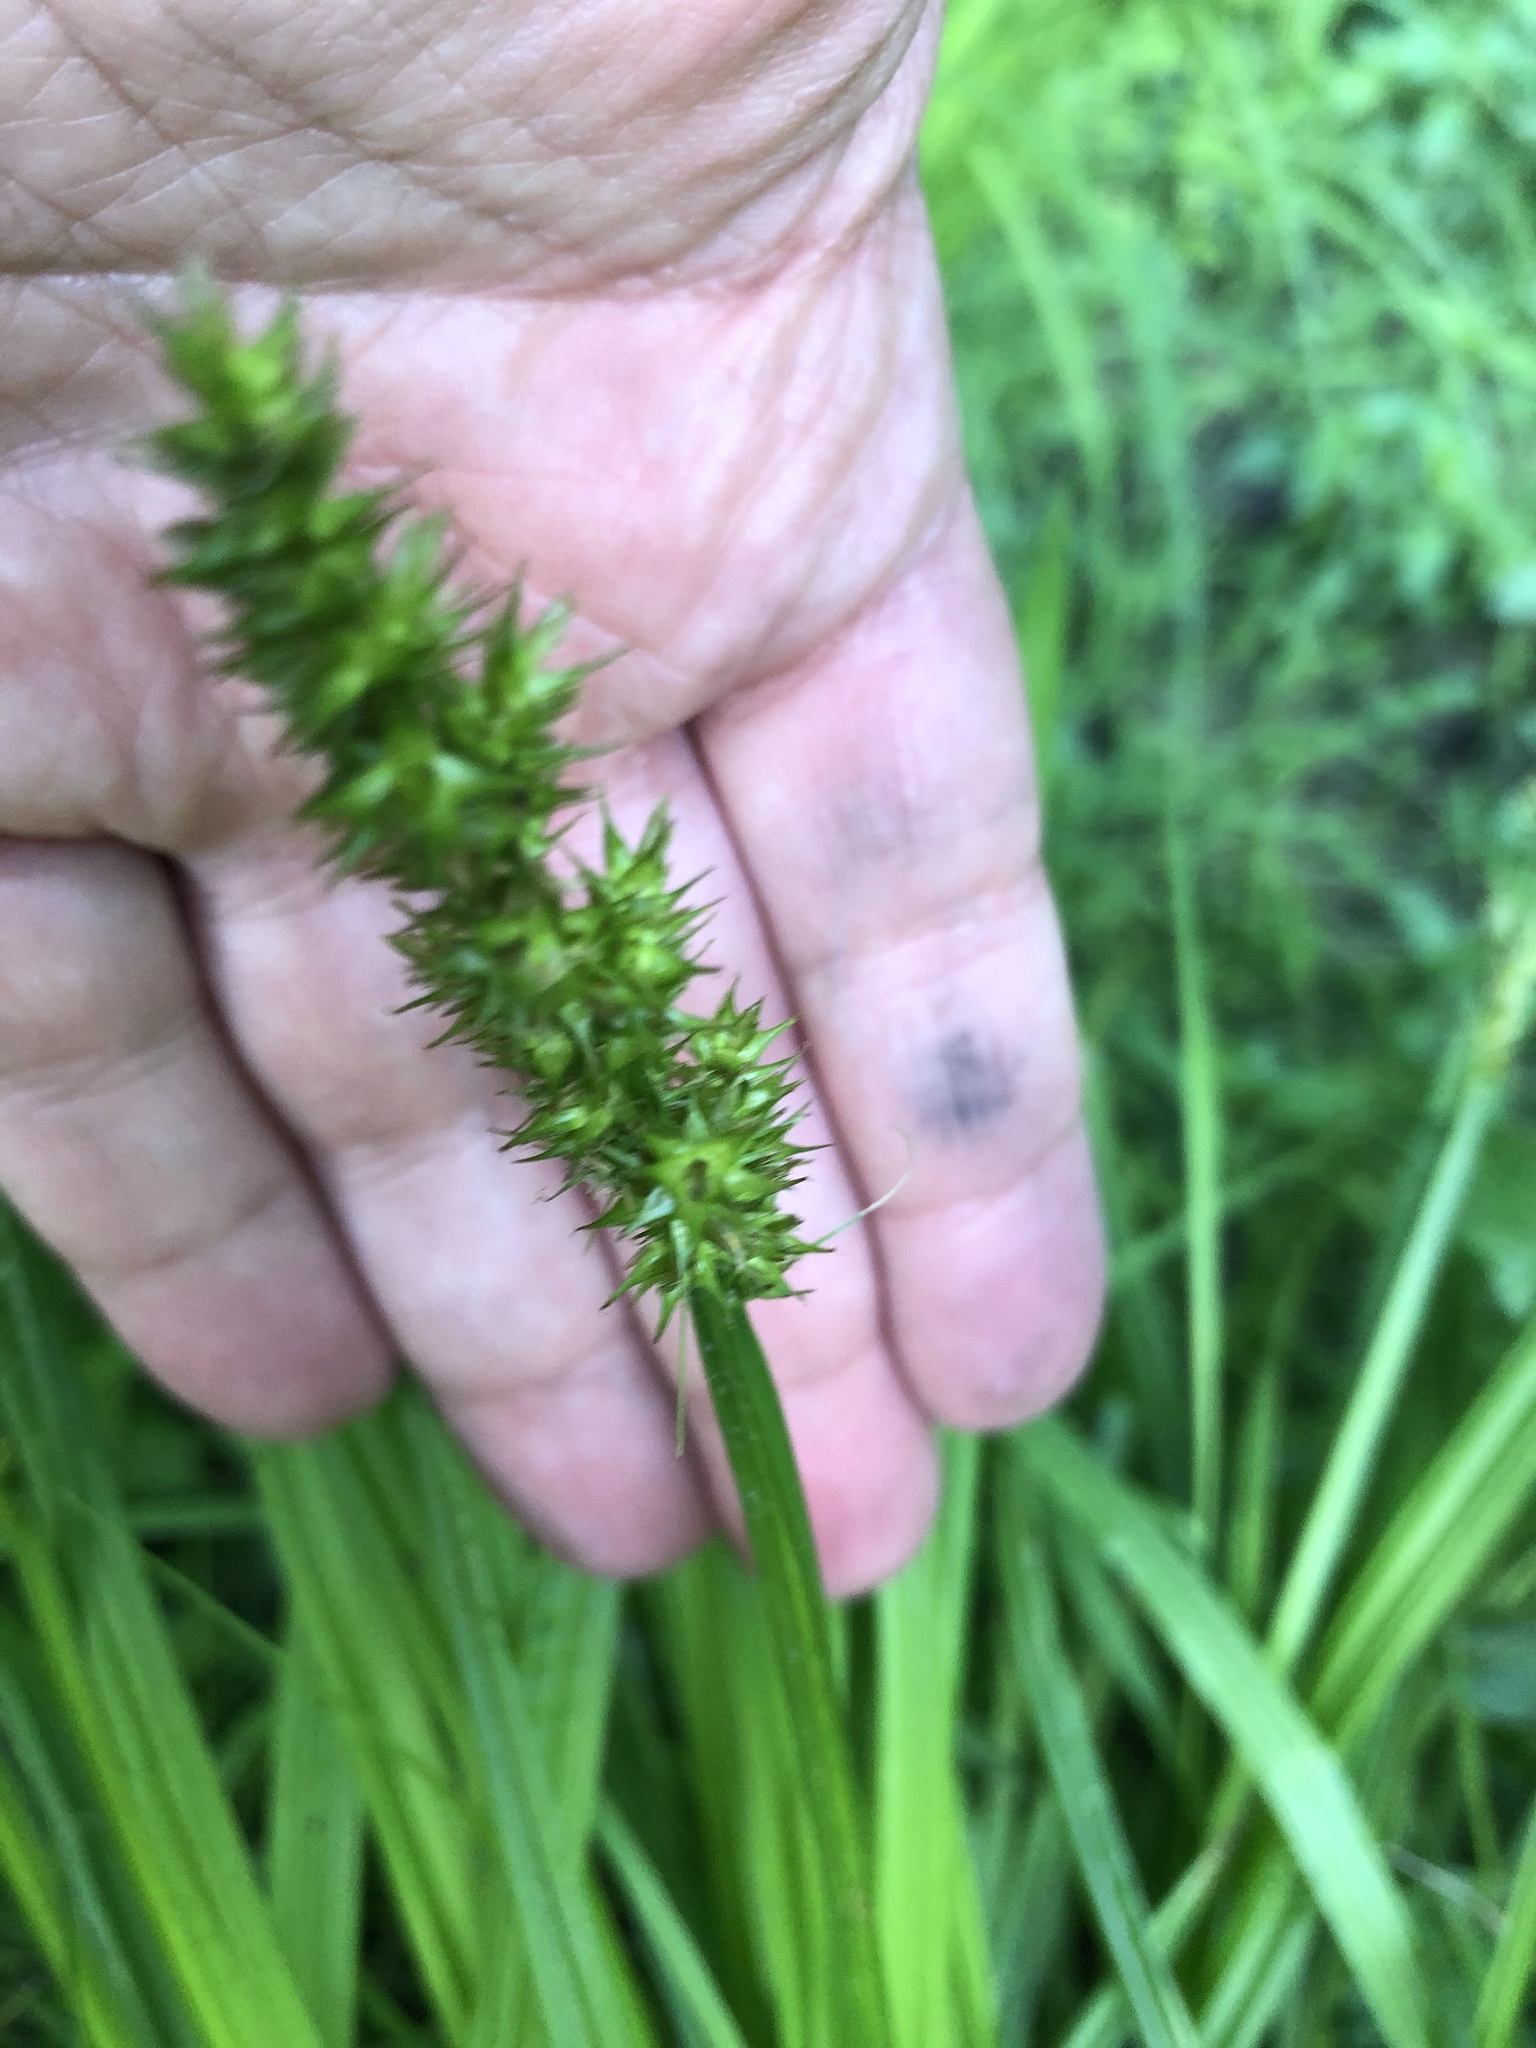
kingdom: Plantae
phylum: Tracheophyta
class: Liliopsida
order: Poales
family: Cyperaceae
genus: Carex
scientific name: Carex stipata
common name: Awl-fruited sedge
